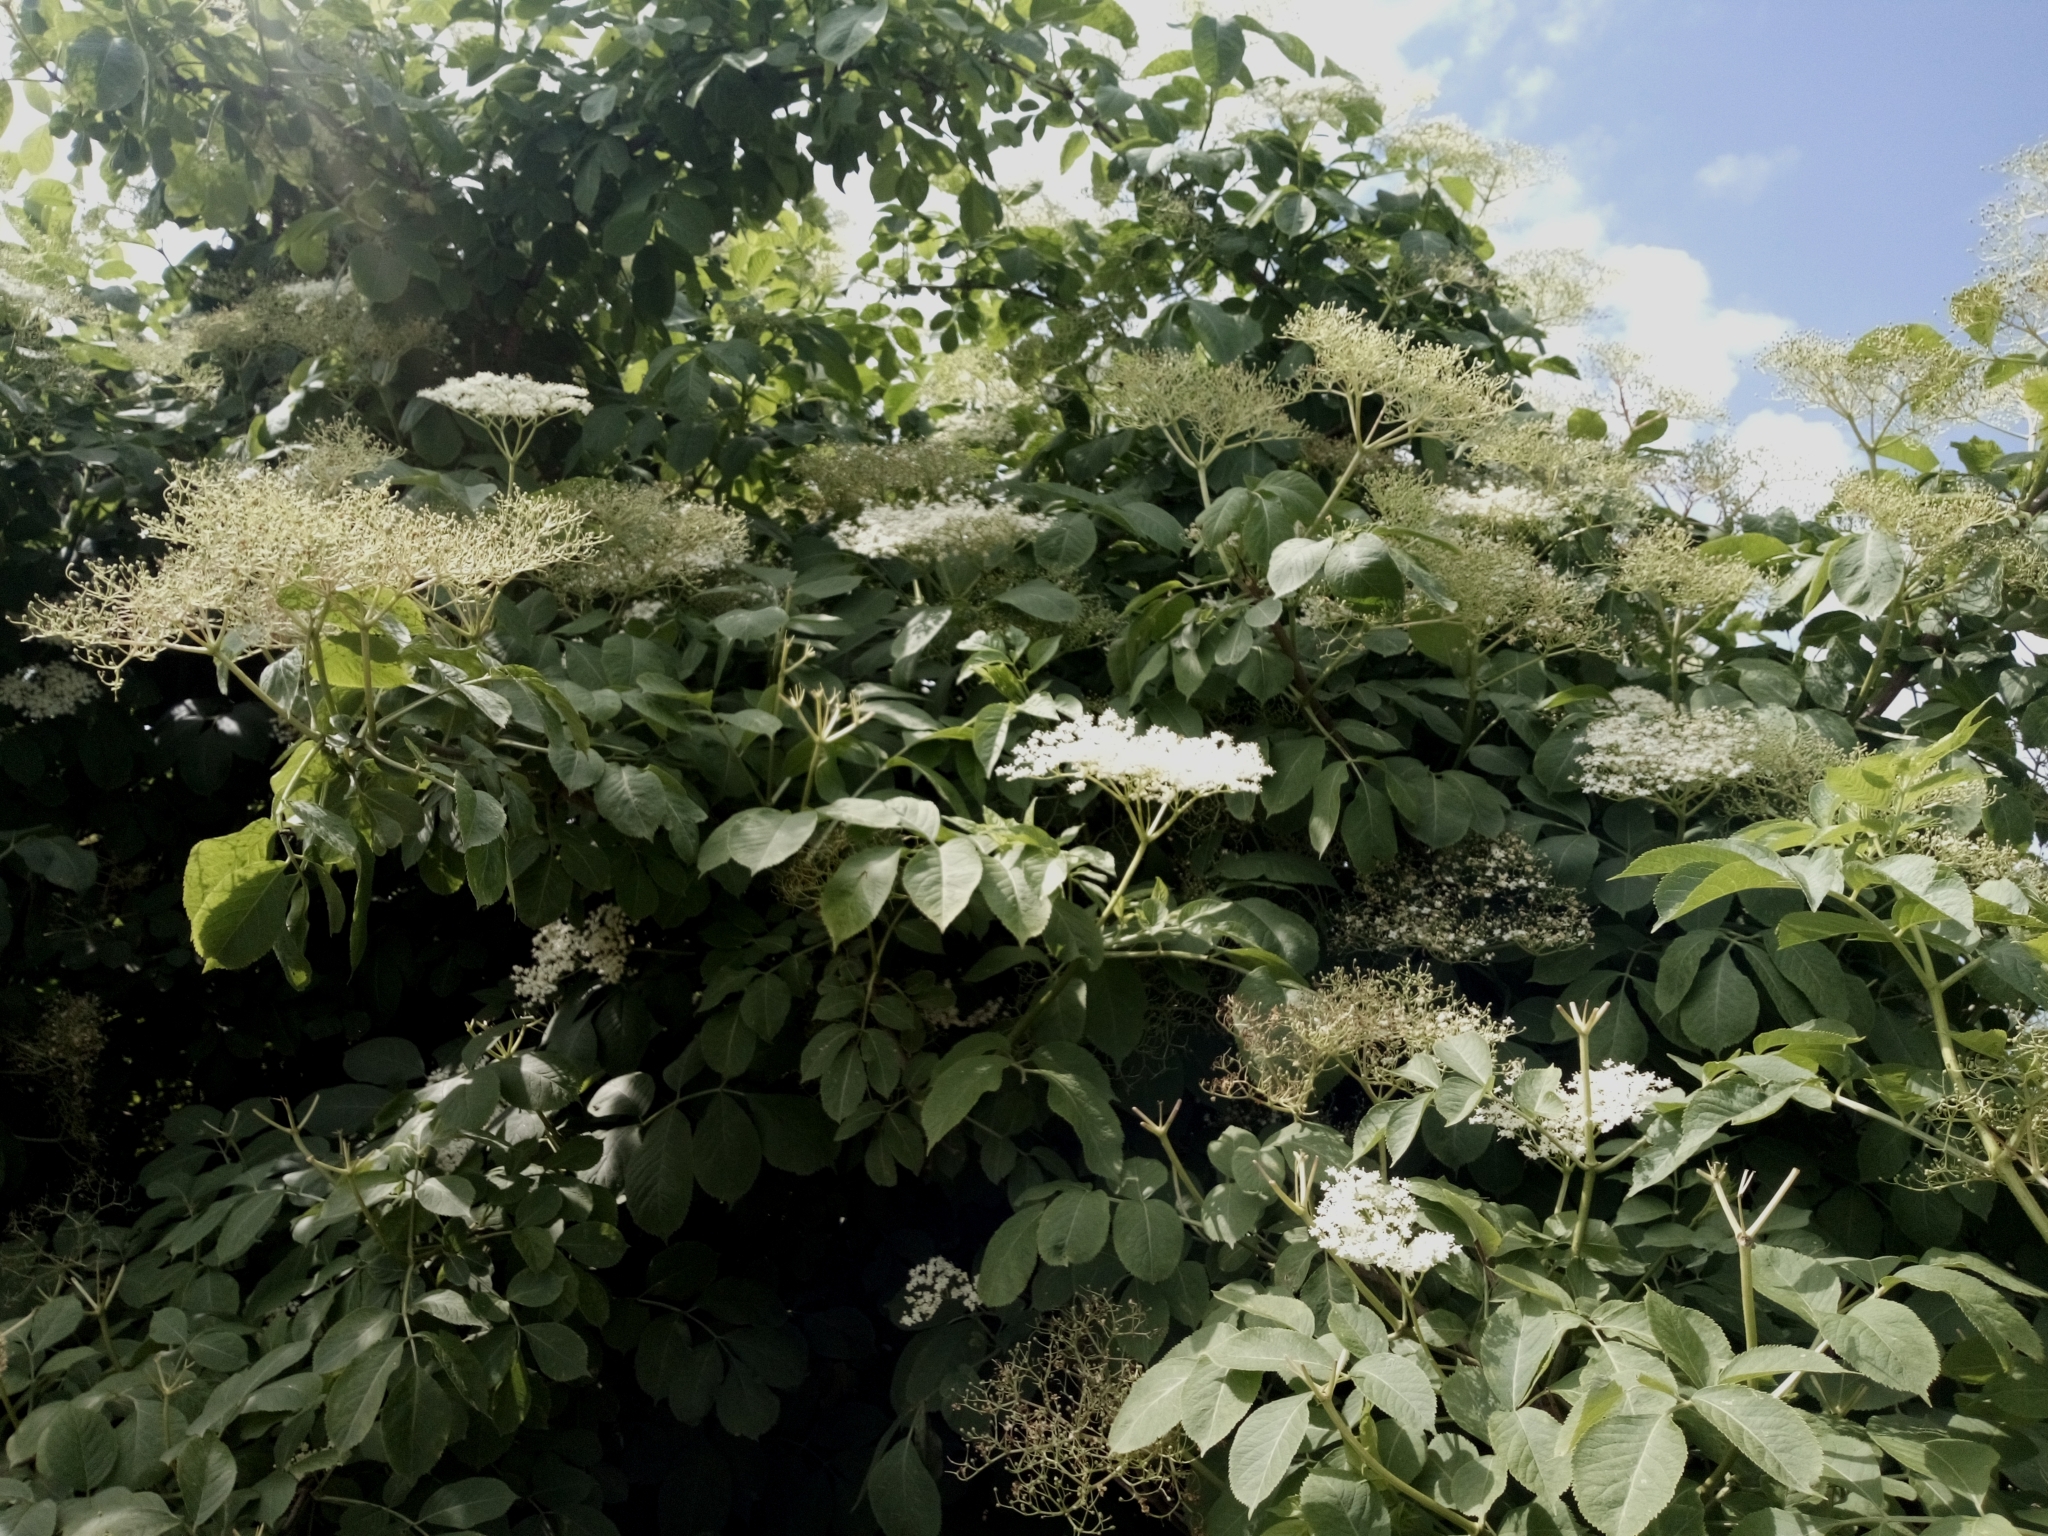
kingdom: Plantae
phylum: Tracheophyta
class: Magnoliopsida
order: Dipsacales
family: Viburnaceae
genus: Sambucus
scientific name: Sambucus nigra
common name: Elder
